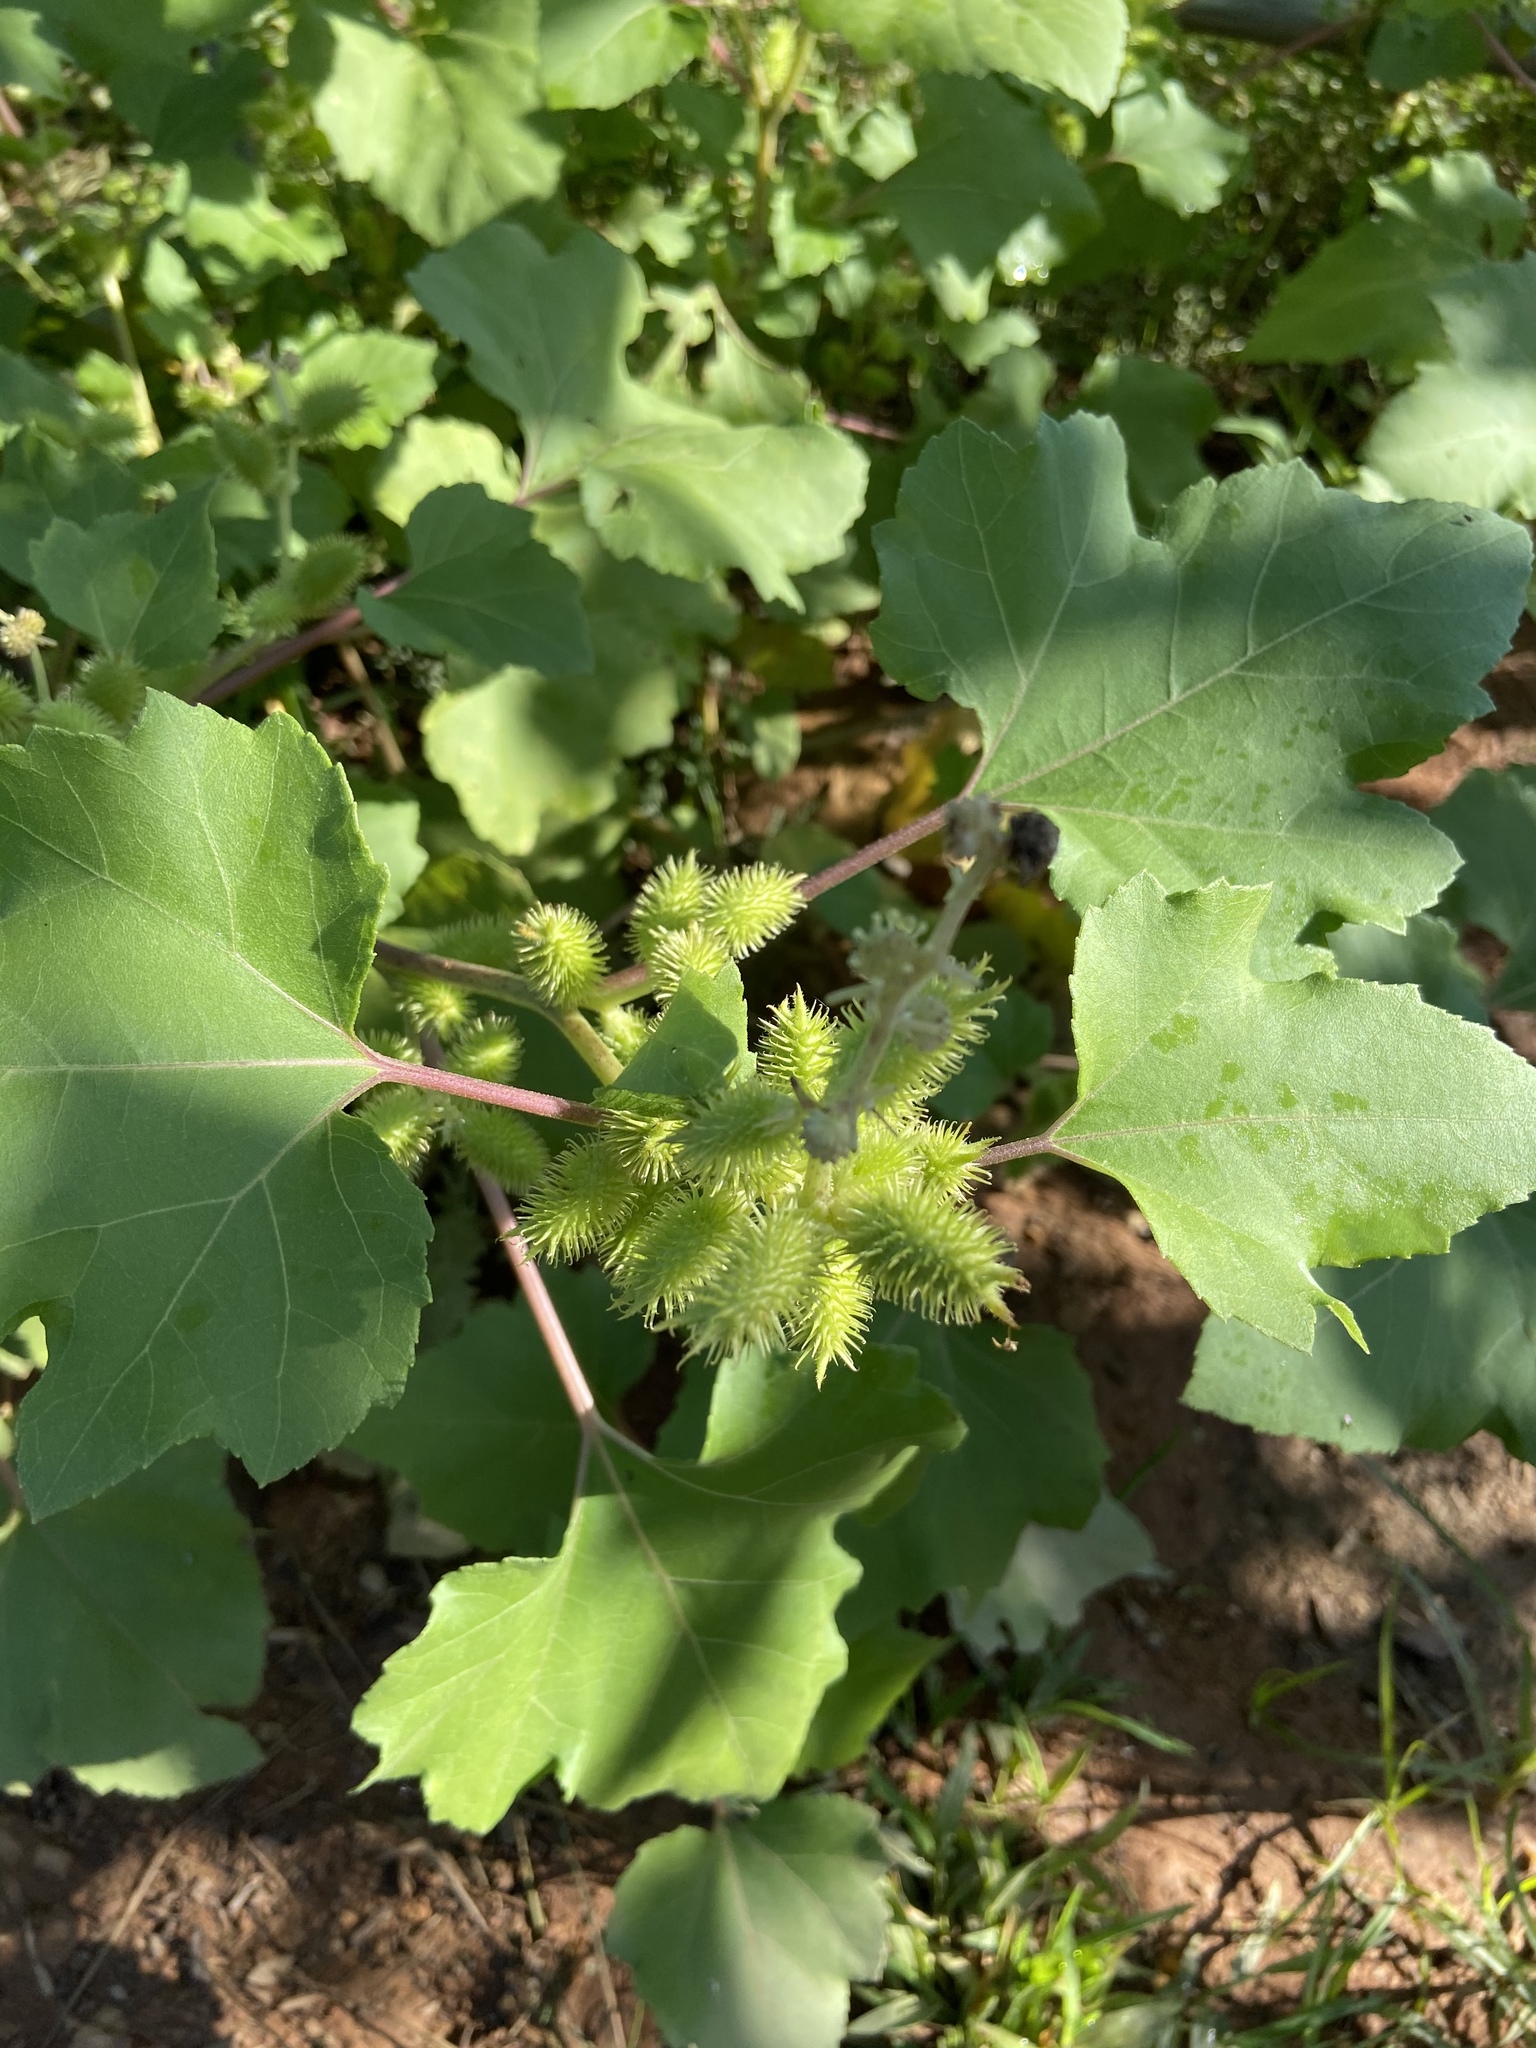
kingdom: Plantae
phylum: Tracheophyta
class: Magnoliopsida
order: Asterales
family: Asteraceae
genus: Xanthium
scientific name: Xanthium strumarium
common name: Rough cocklebur
